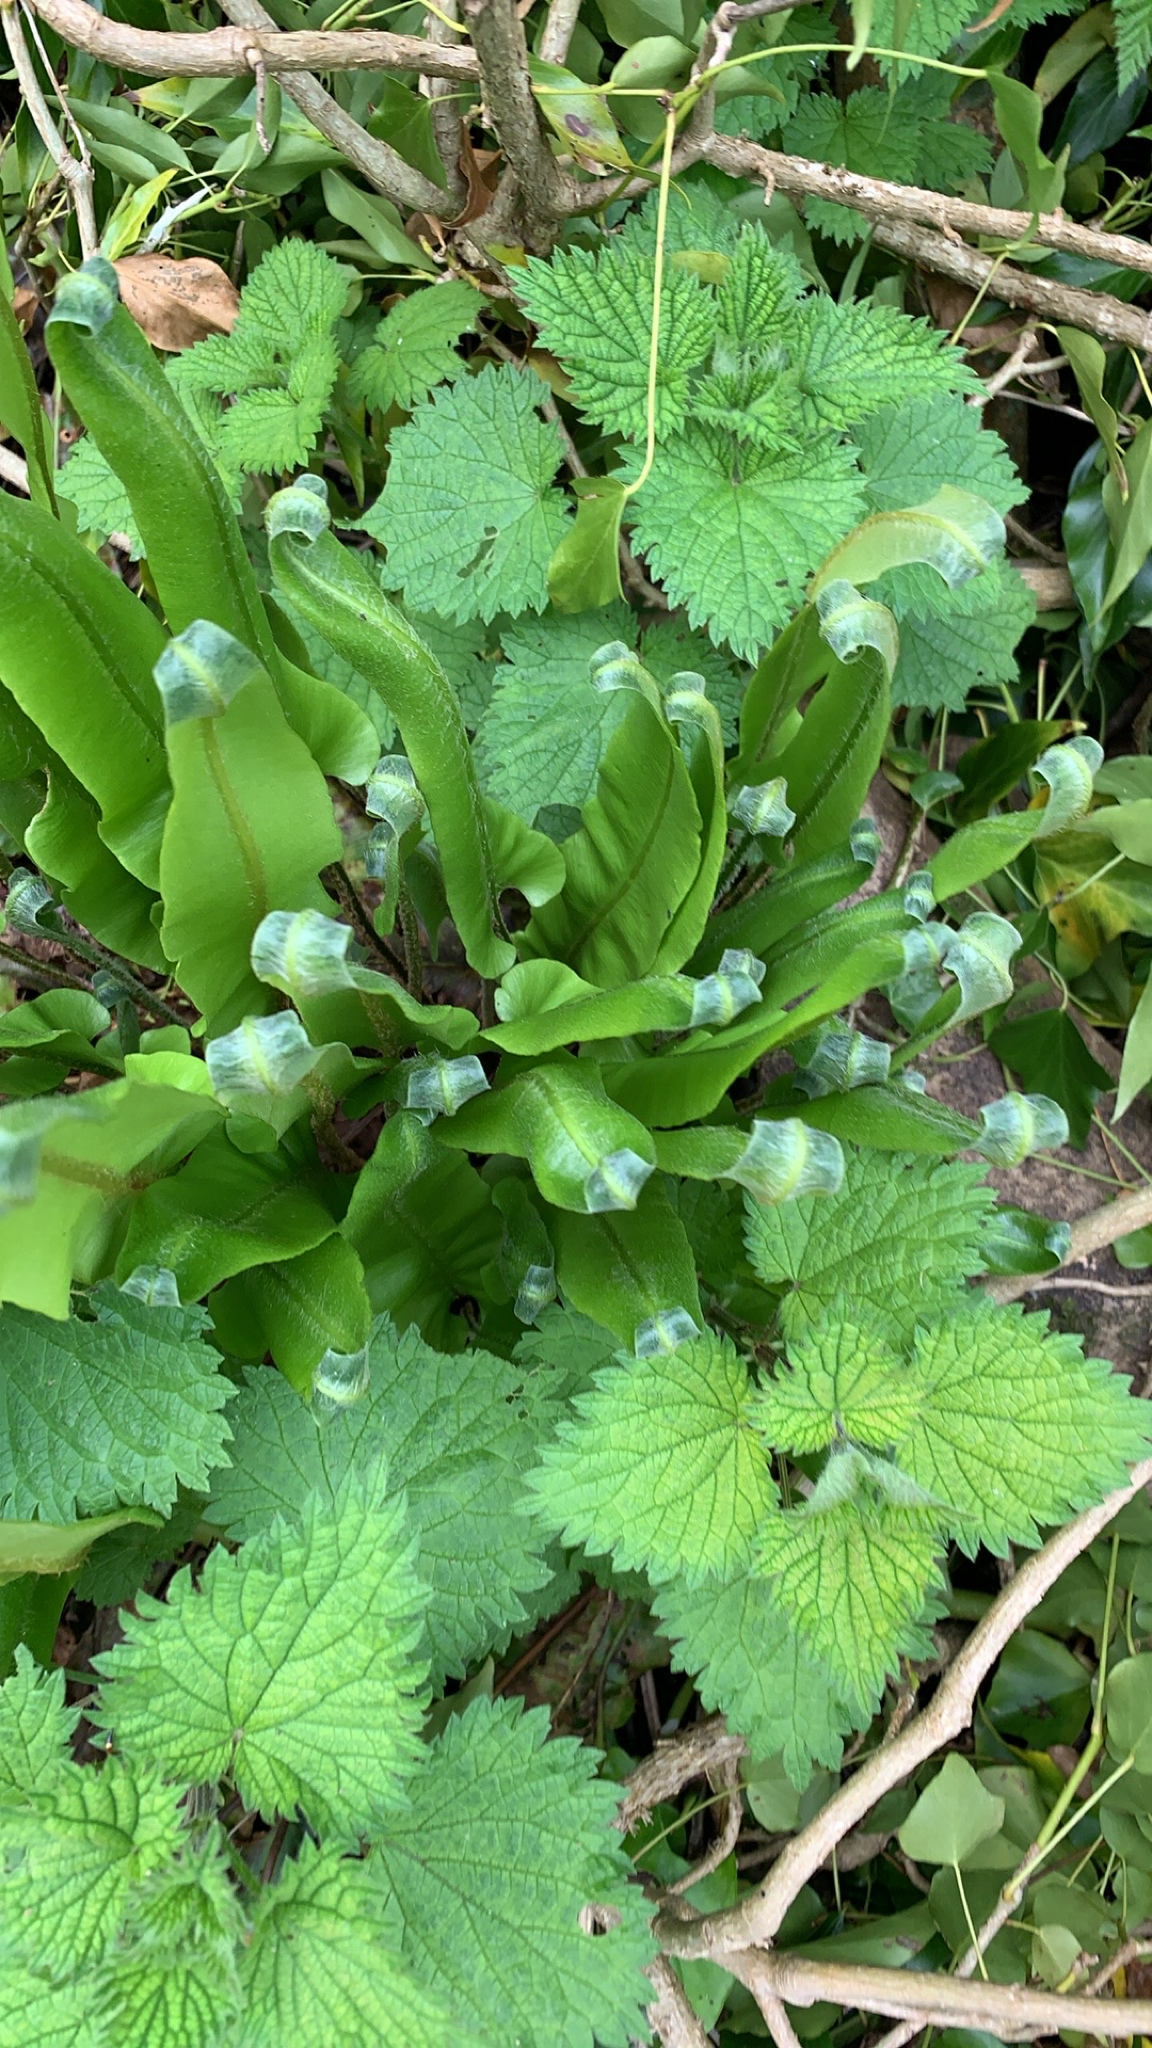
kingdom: Plantae
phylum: Tracheophyta
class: Polypodiopsida
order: Polypodiales
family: Aspleniaceae
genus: Asplenium
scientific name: Asplenium scolopendrium
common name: Hart's-tongue fern
